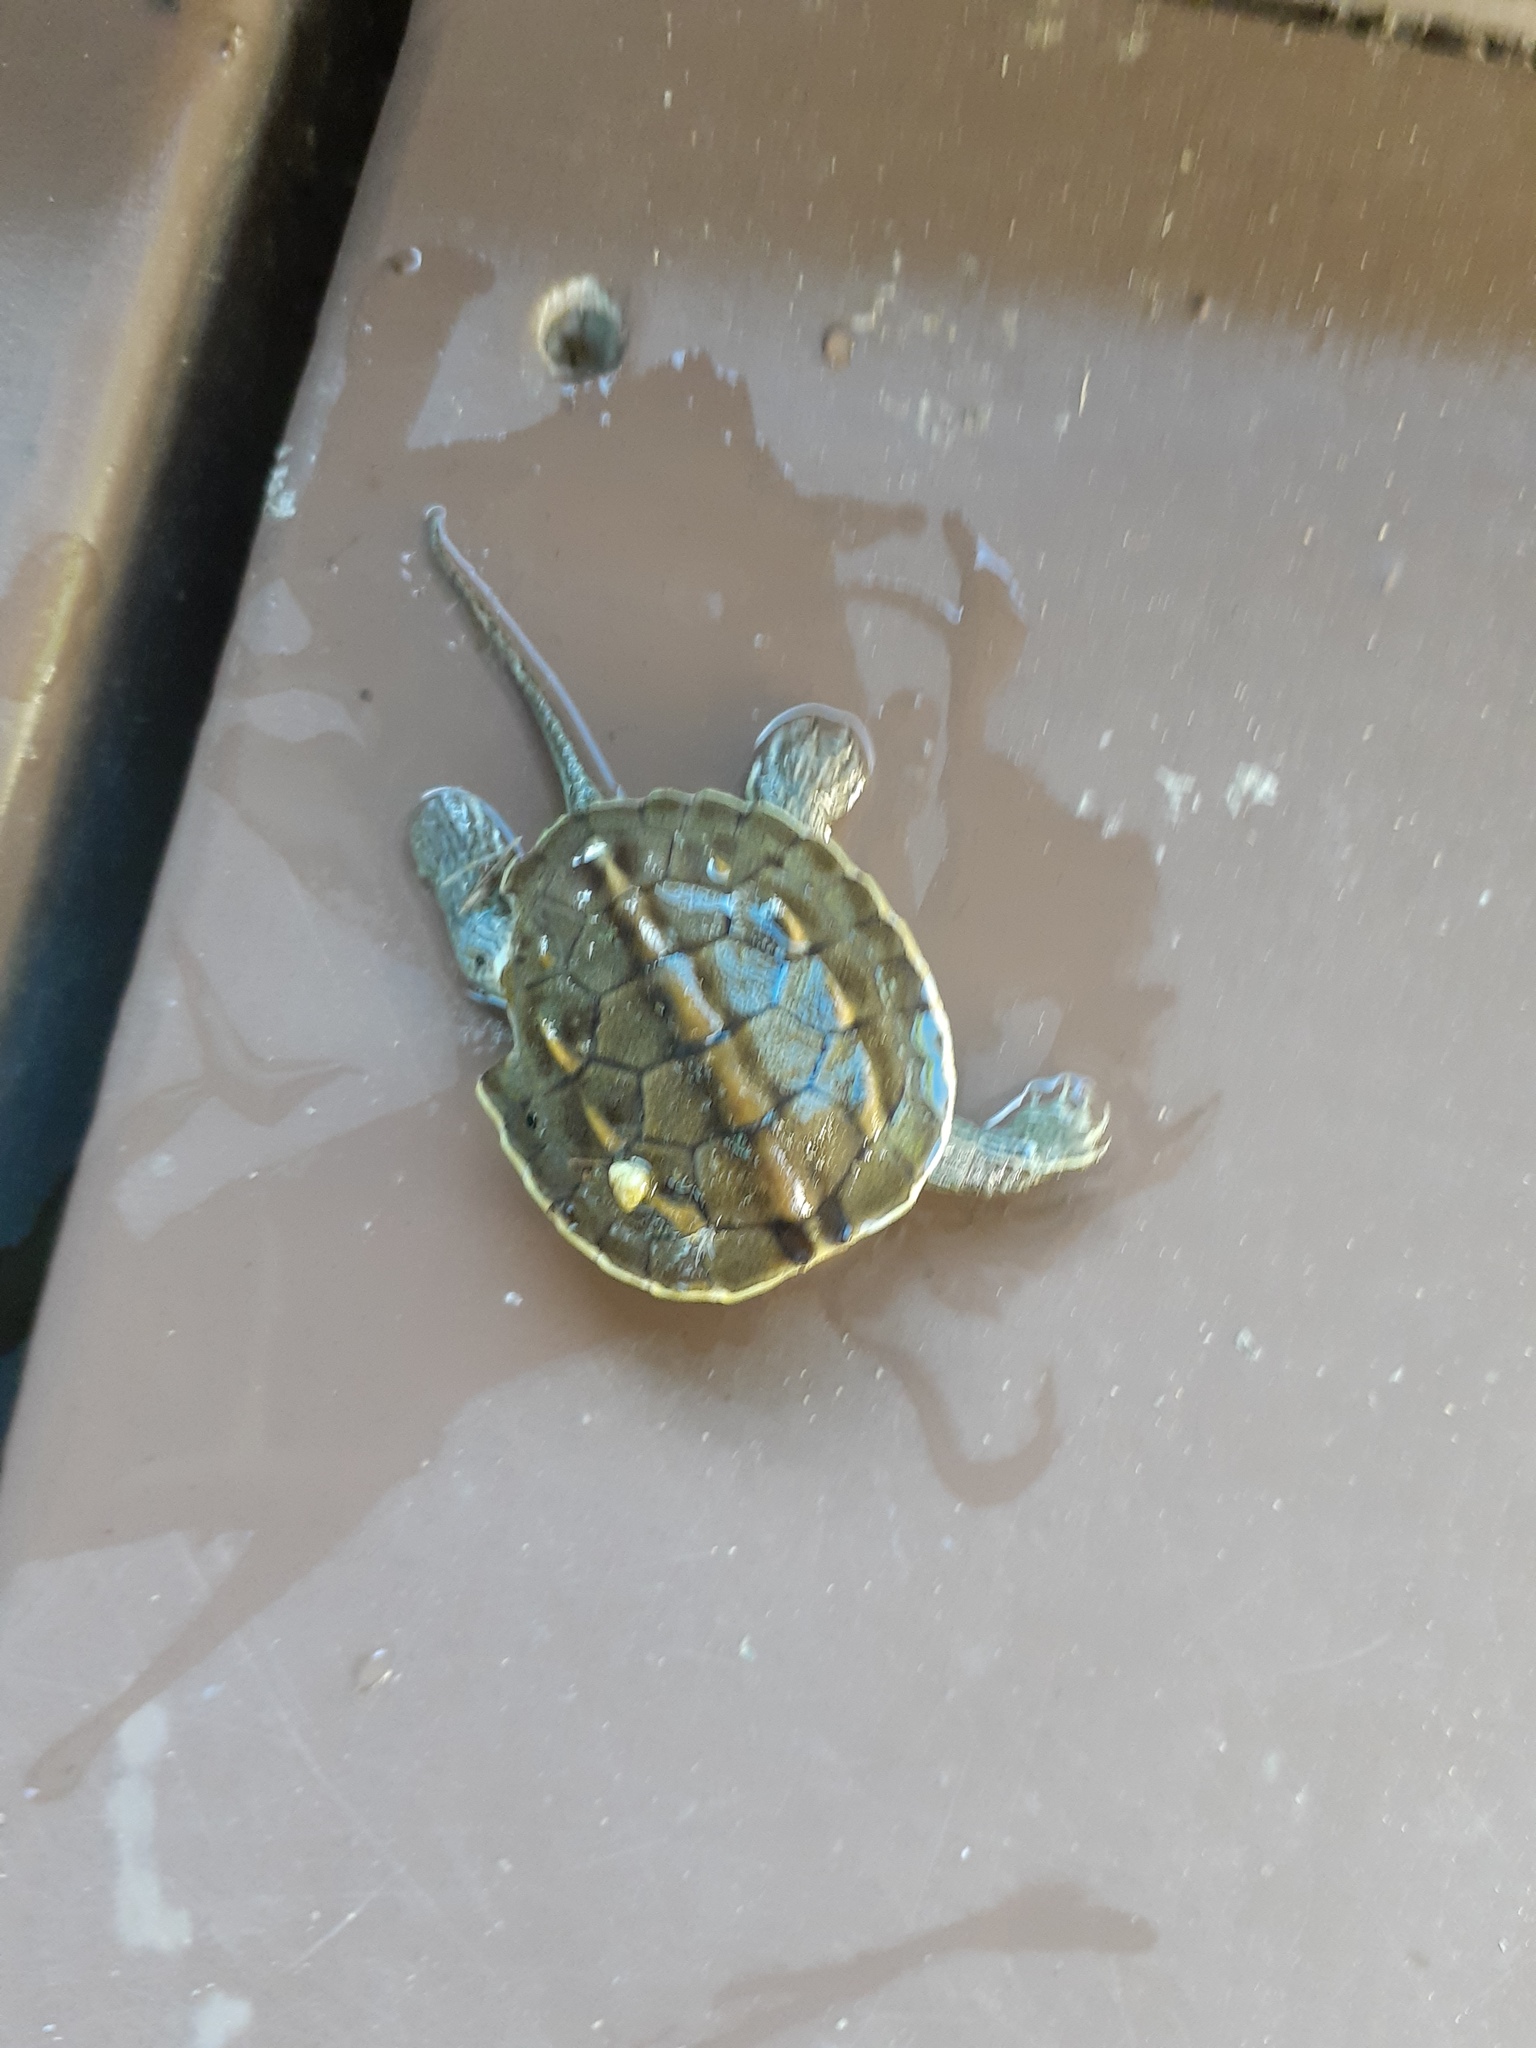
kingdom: Animalia
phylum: Chordata
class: Testudines
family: Geoemydidae
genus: Mauremys
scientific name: Mauremys sinensis
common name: Chinese stripe-necked turtle
